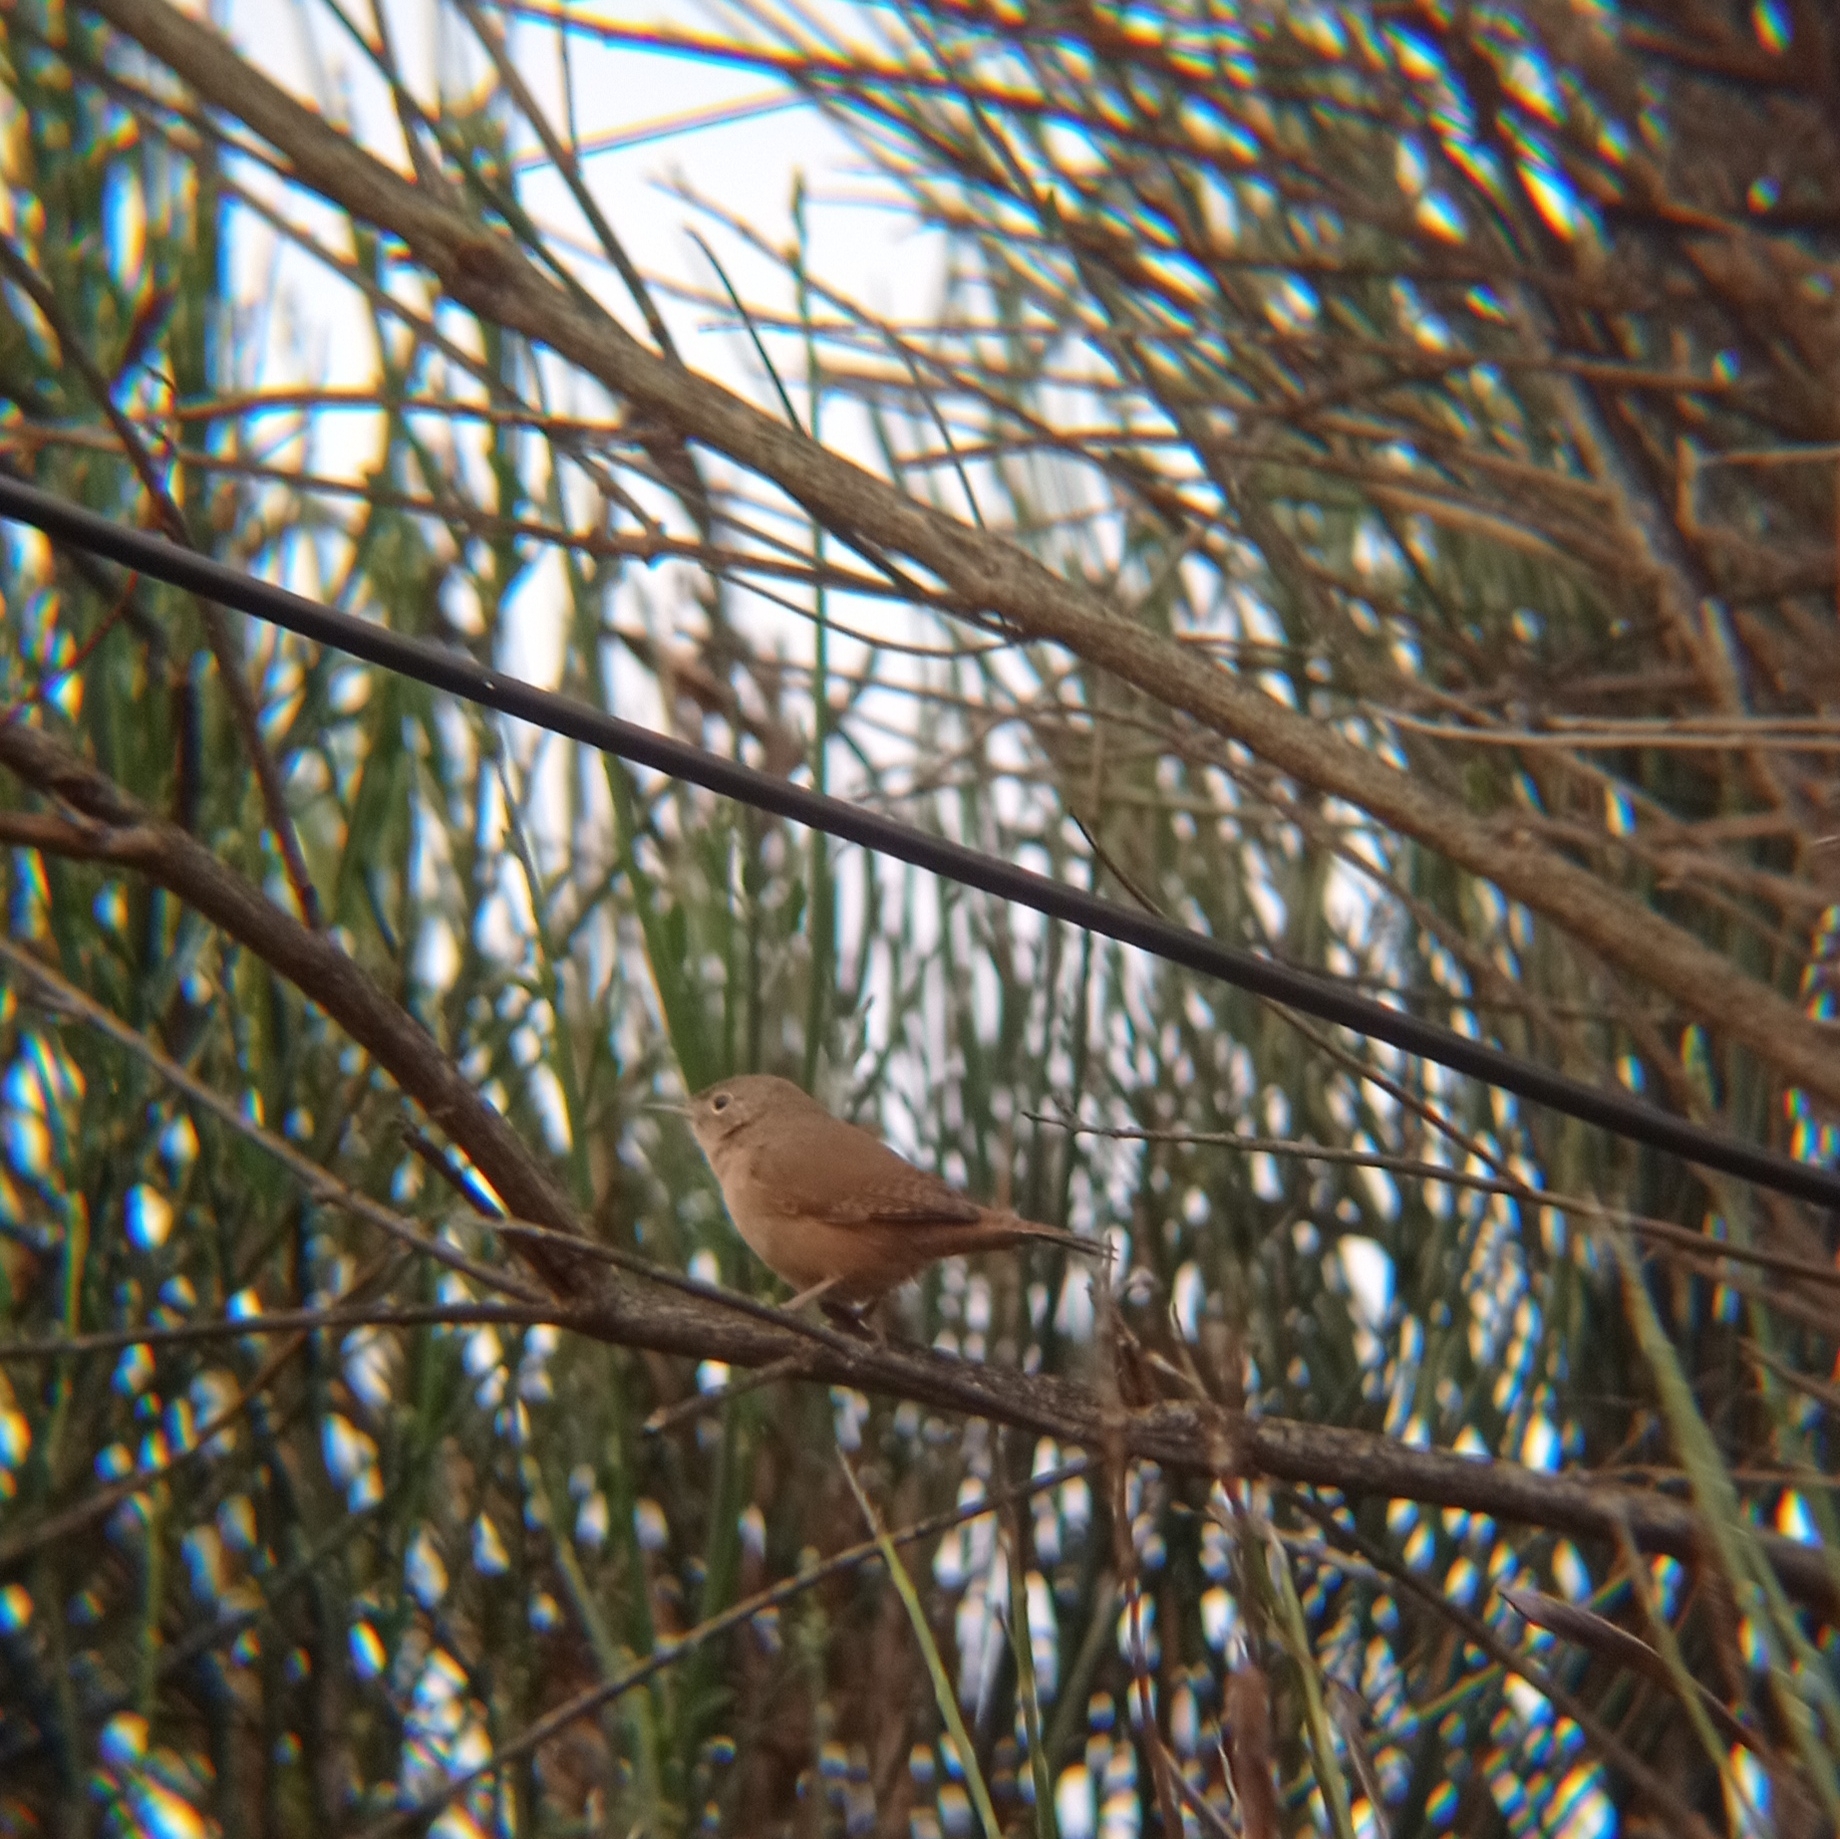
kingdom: Animalia
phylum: Chordata
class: Aves
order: Passeriformes
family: Troglodytidae
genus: Troglodytes
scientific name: Troglodytes aedon
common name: House wren
